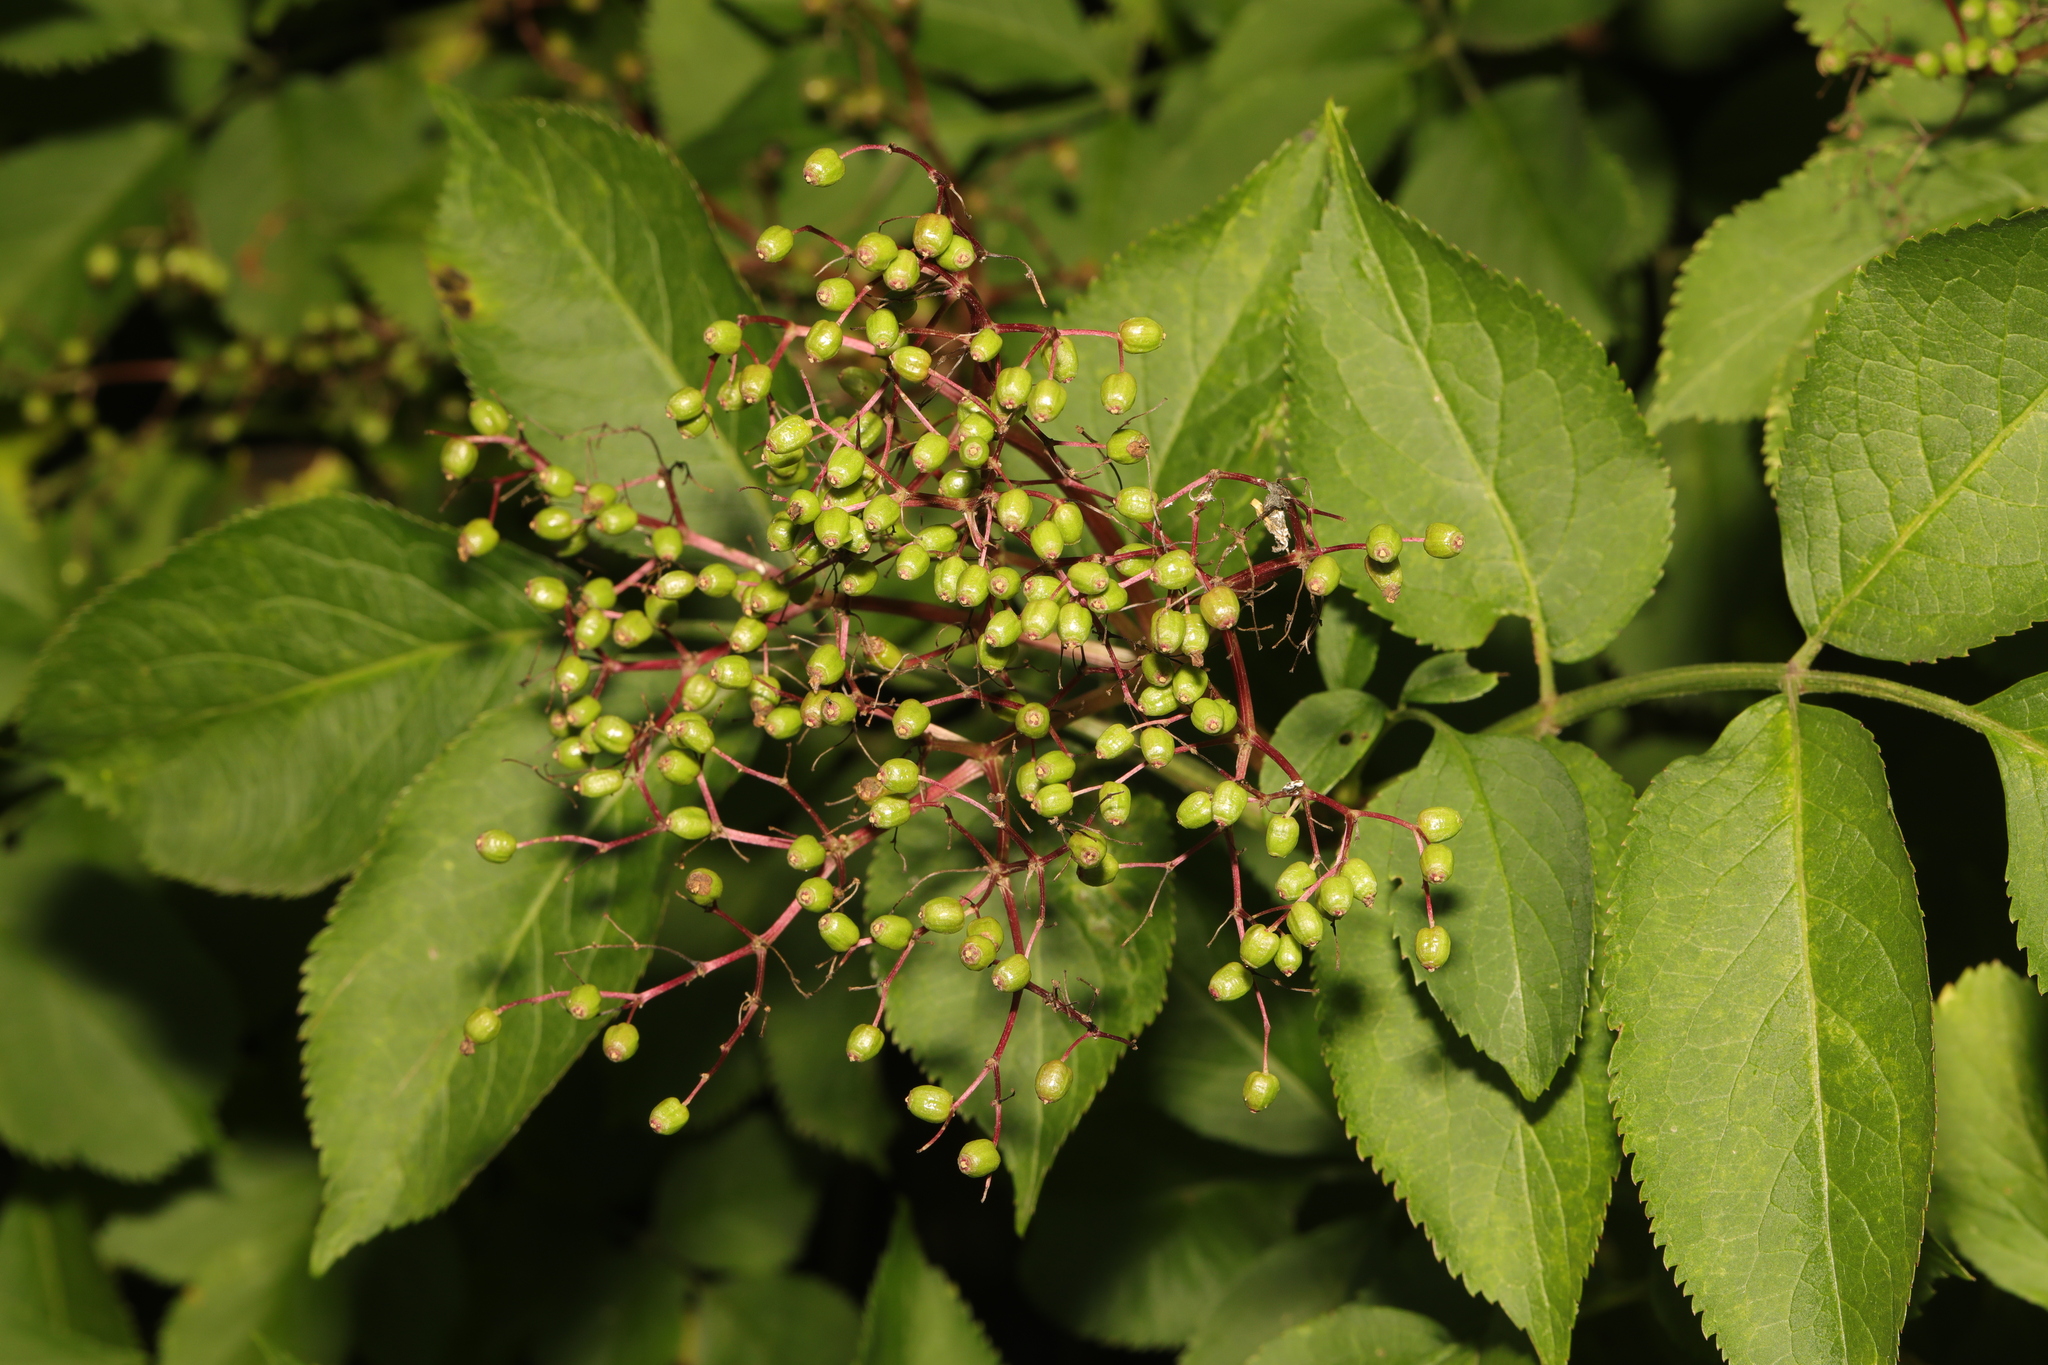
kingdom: Plantae
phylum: Tracheophyta
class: Magnoliopsida
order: Dipsacales
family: Viburnaceae
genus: Sambucus
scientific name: Sambucus nigra
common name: Elder
